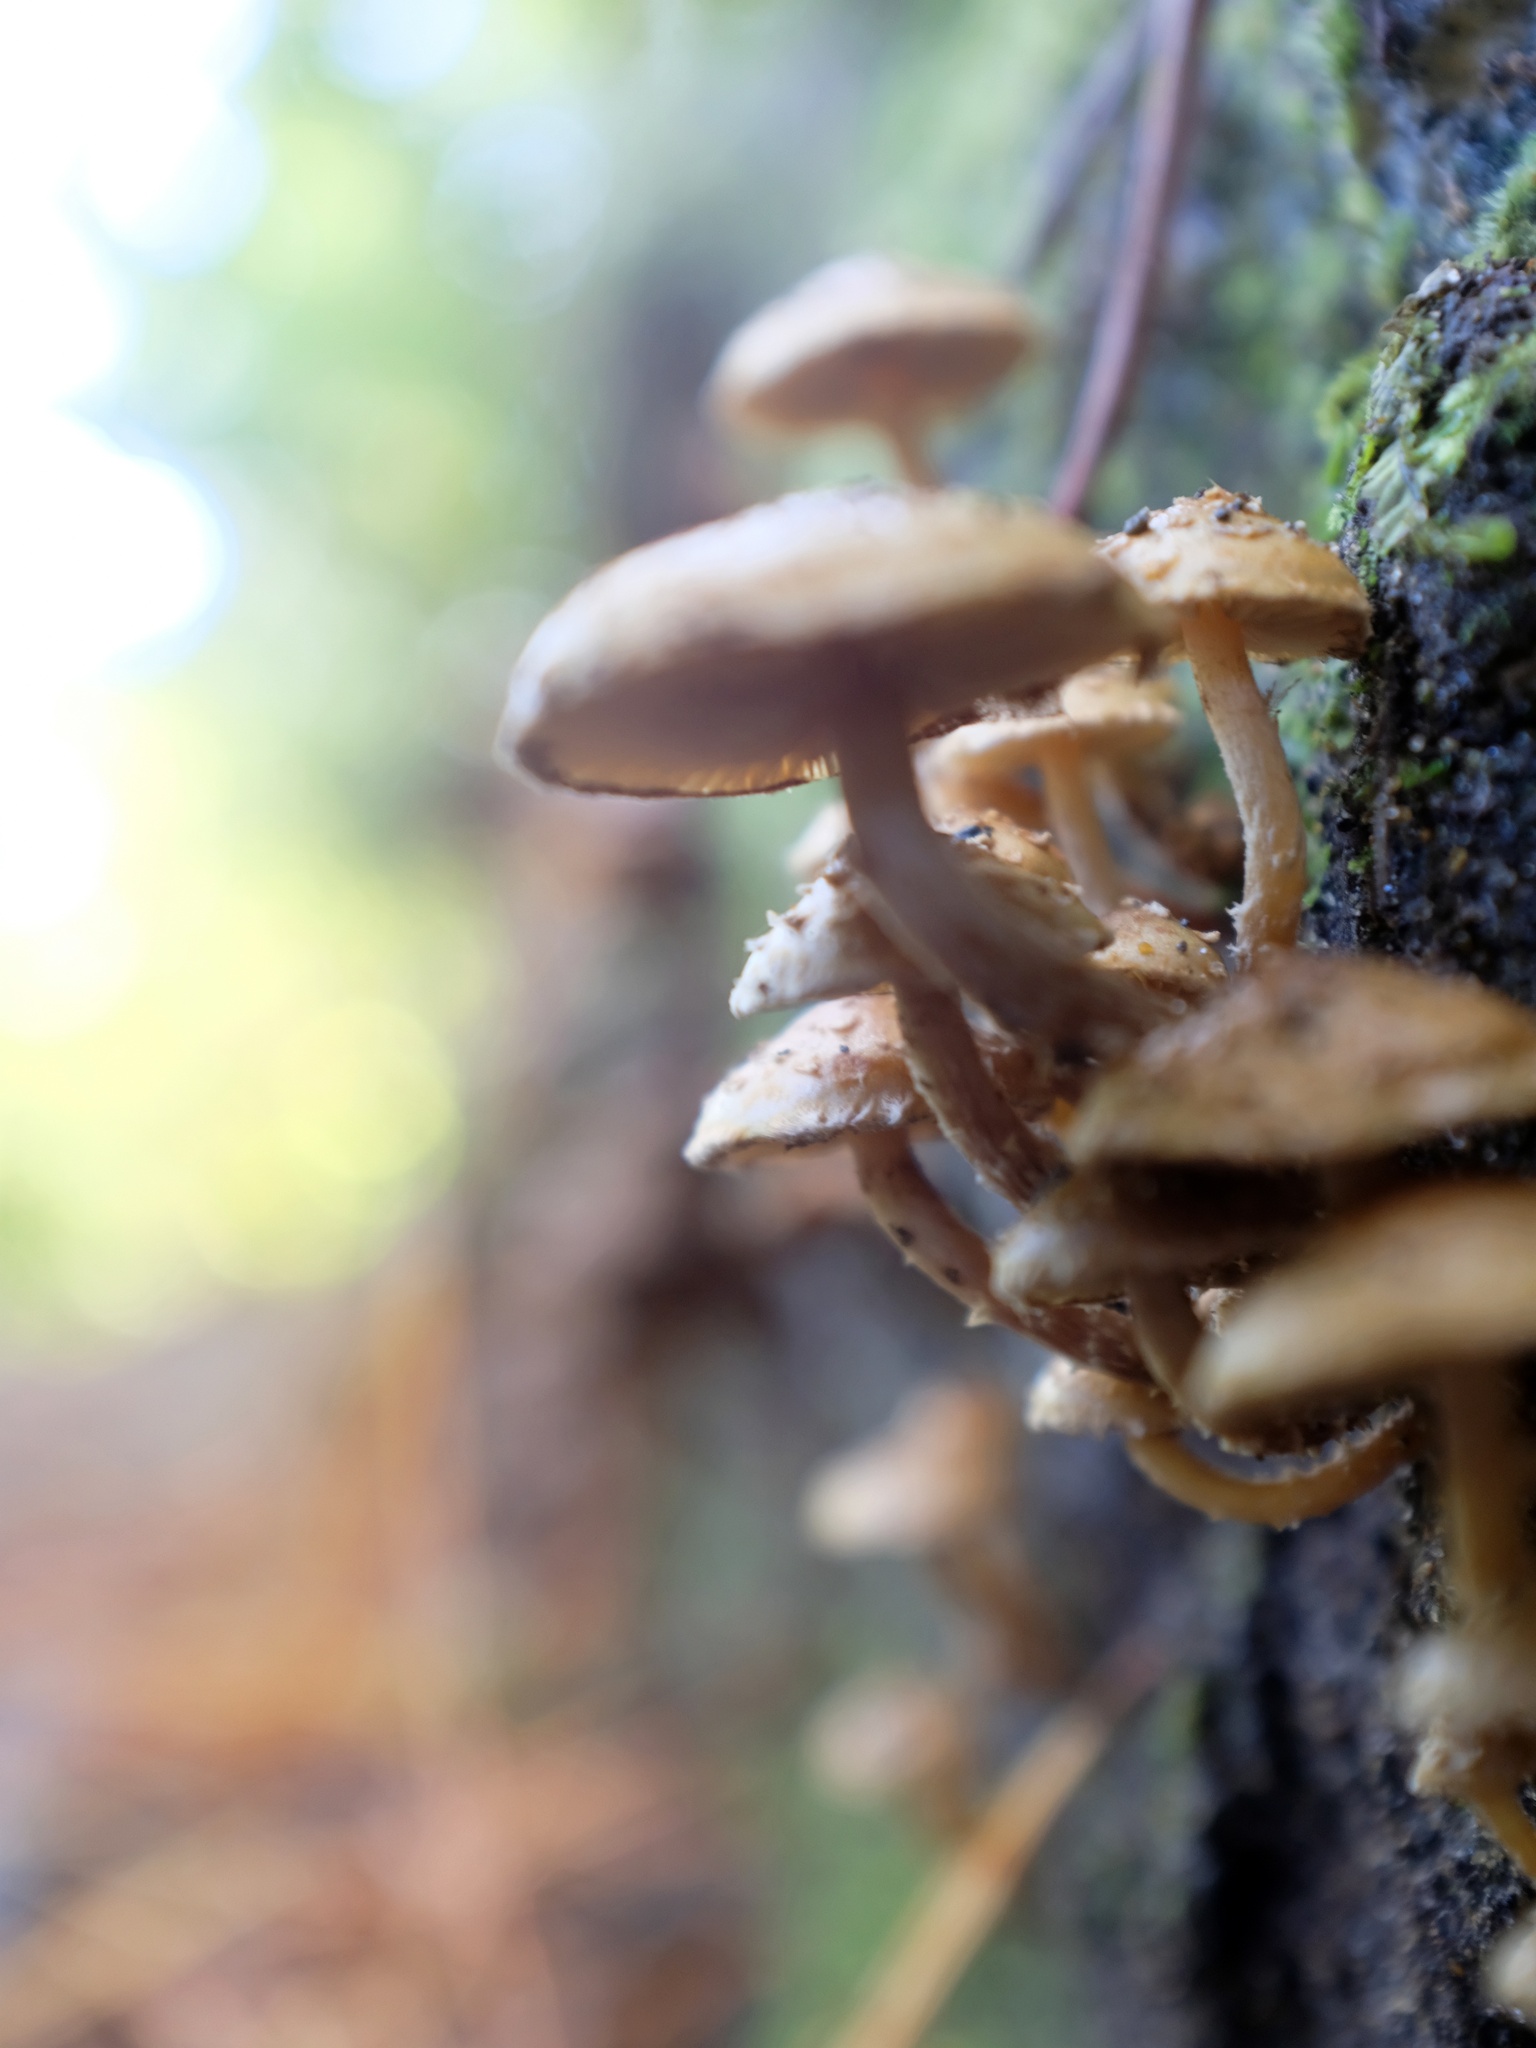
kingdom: Fungi
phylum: Basidiomycota
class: Agaricomycetes
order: Agaricales
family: Strophariaceae
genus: Pholiota
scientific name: Pholiota subflammans
